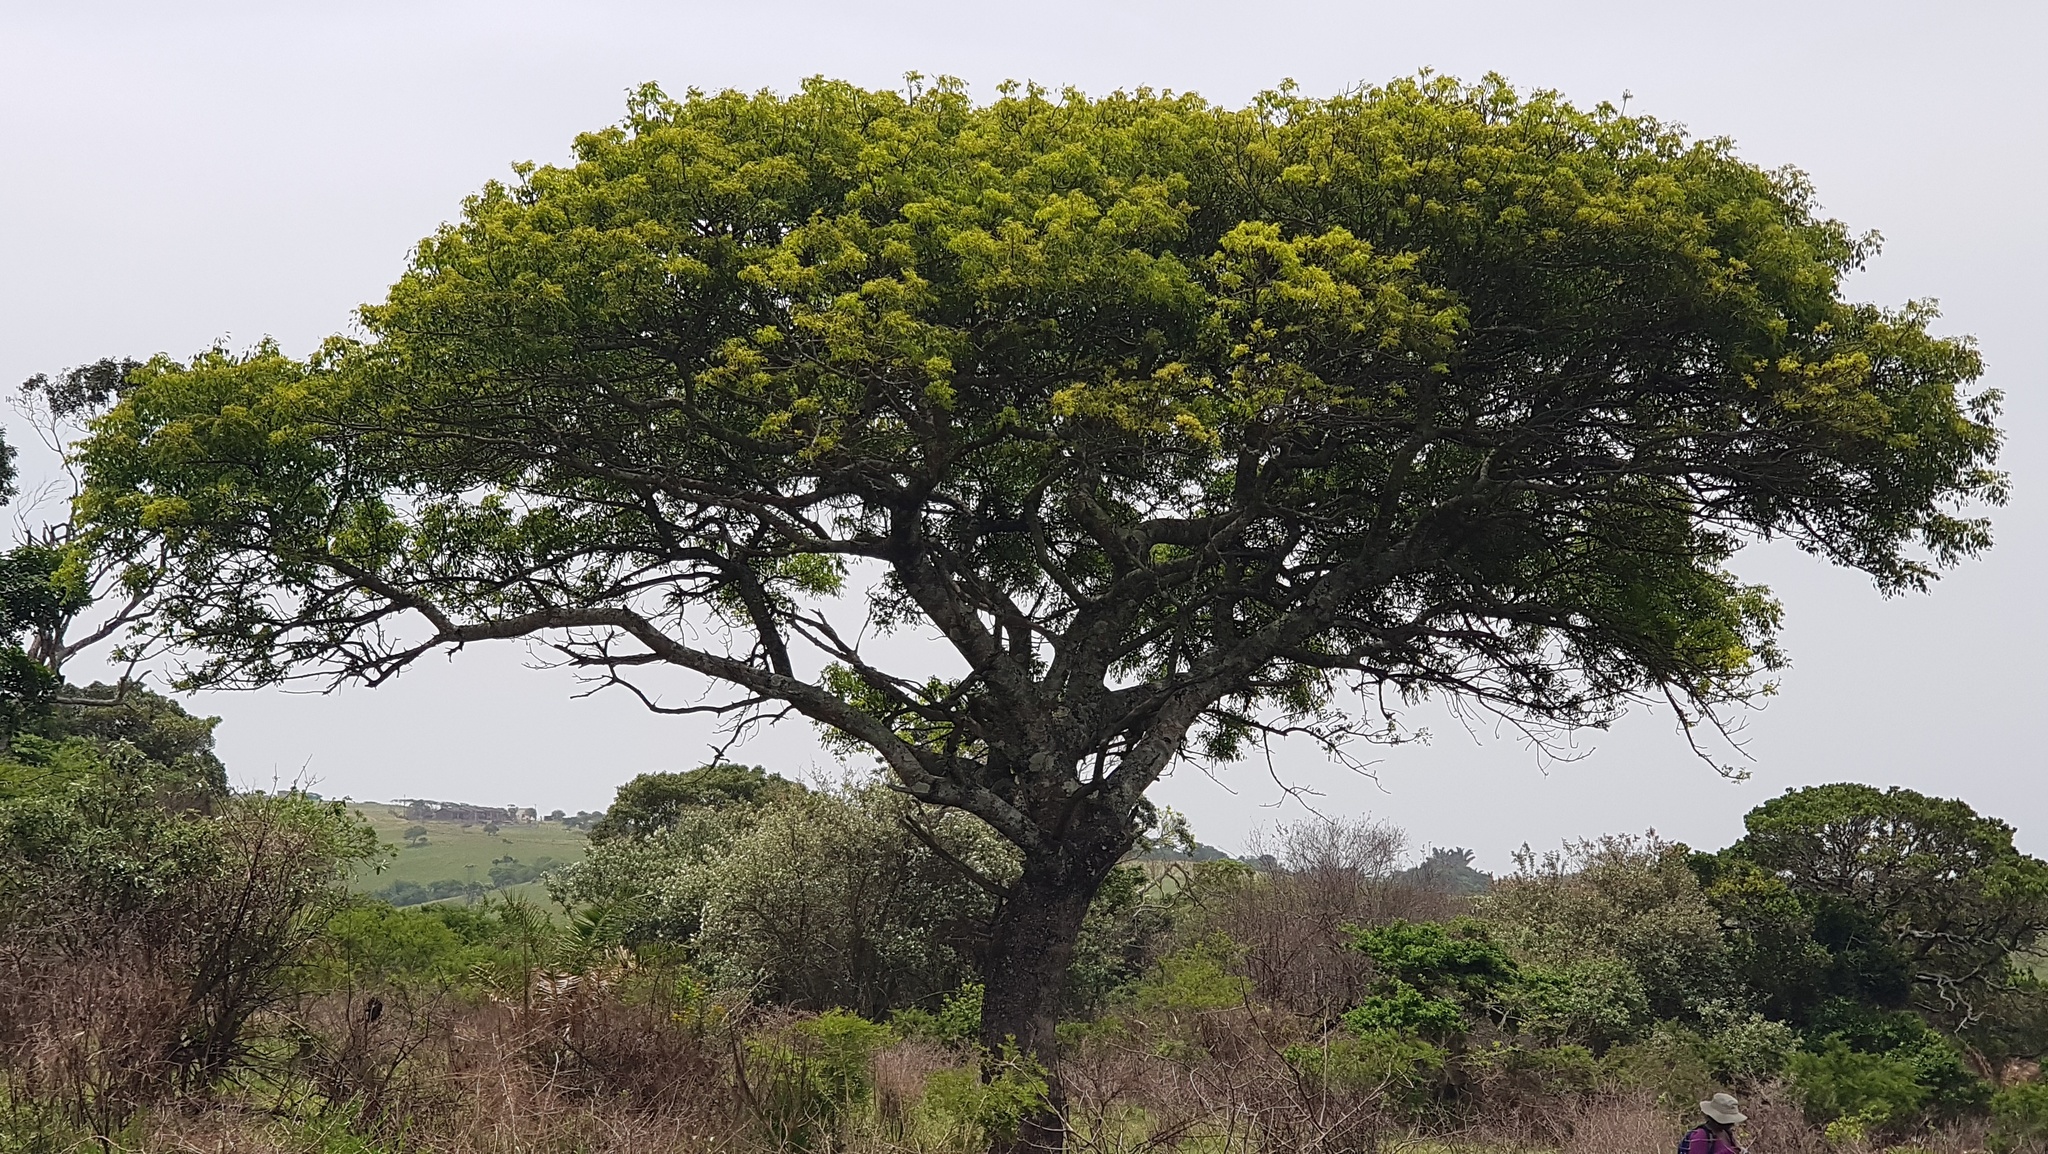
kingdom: Plantae
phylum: Tracheophyta
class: Magnoliopsida
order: Sapindales
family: Anacardiaceae
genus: Sclerocarya
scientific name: Sclerocarya birrea
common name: Marula
